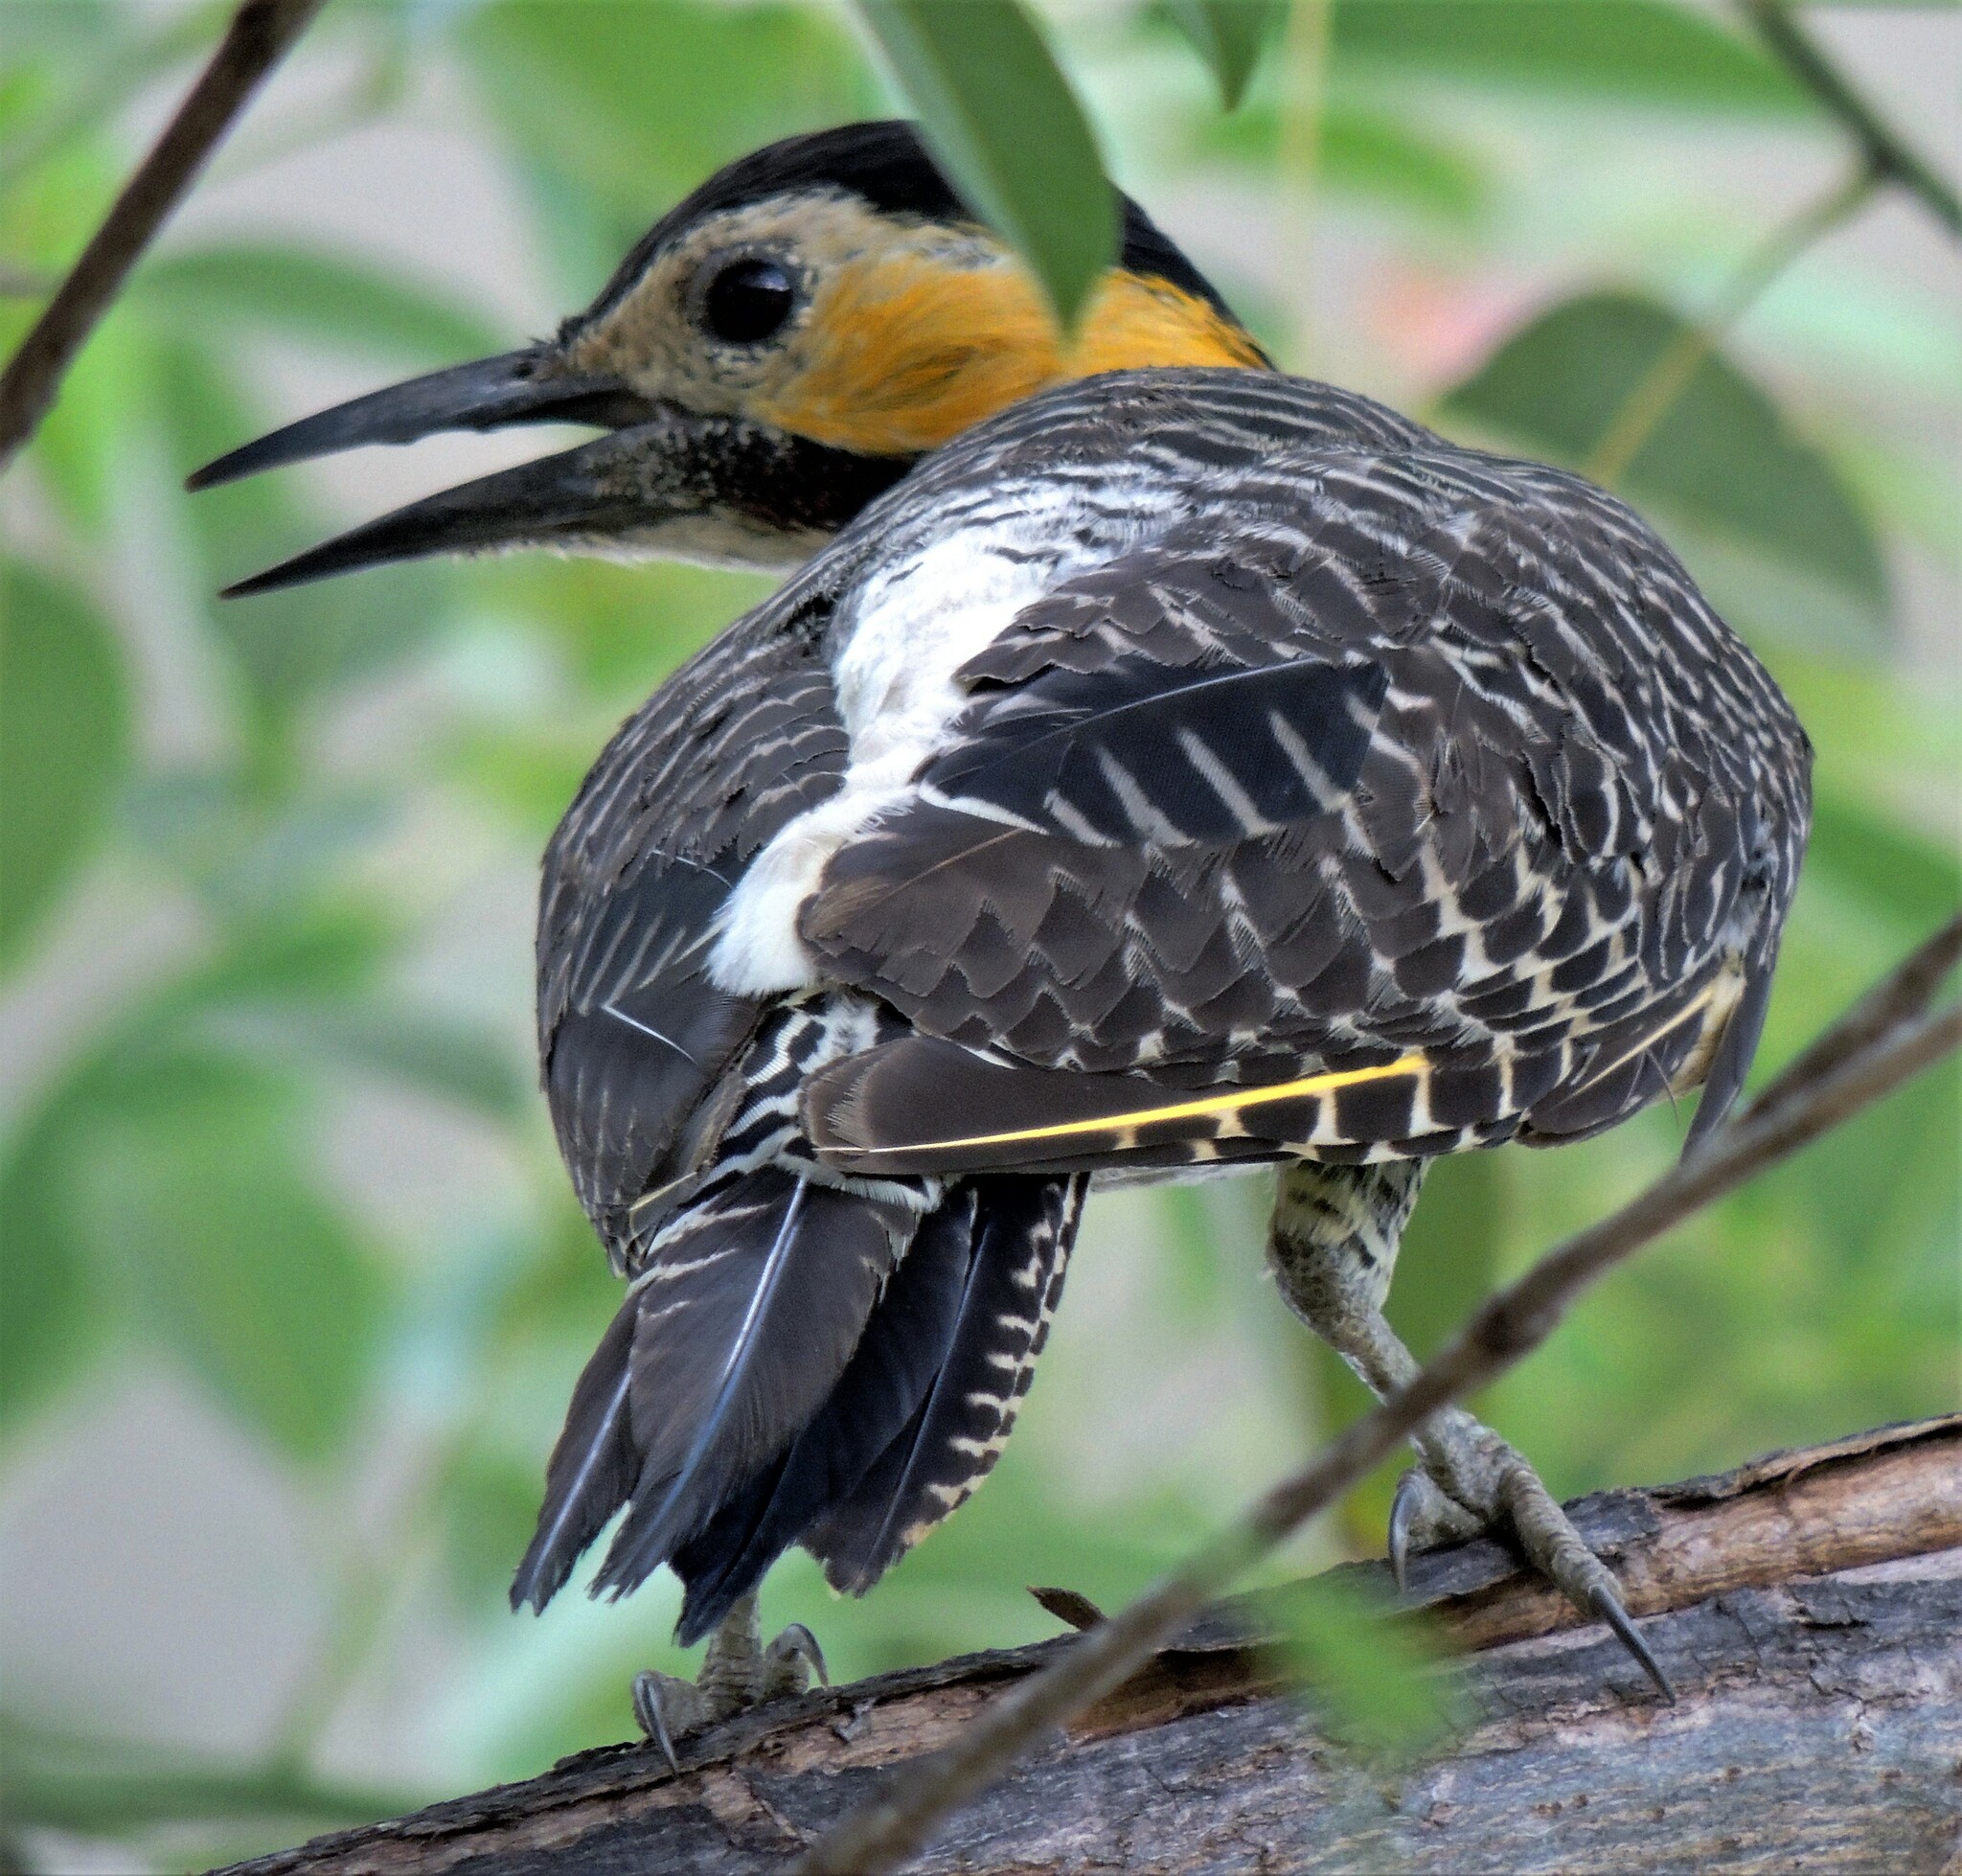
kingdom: Animalia
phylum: Chordata
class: Aves
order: Piciformes
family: Picidae
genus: Colaptes
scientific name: Colaptes campestris
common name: Campo flicker
